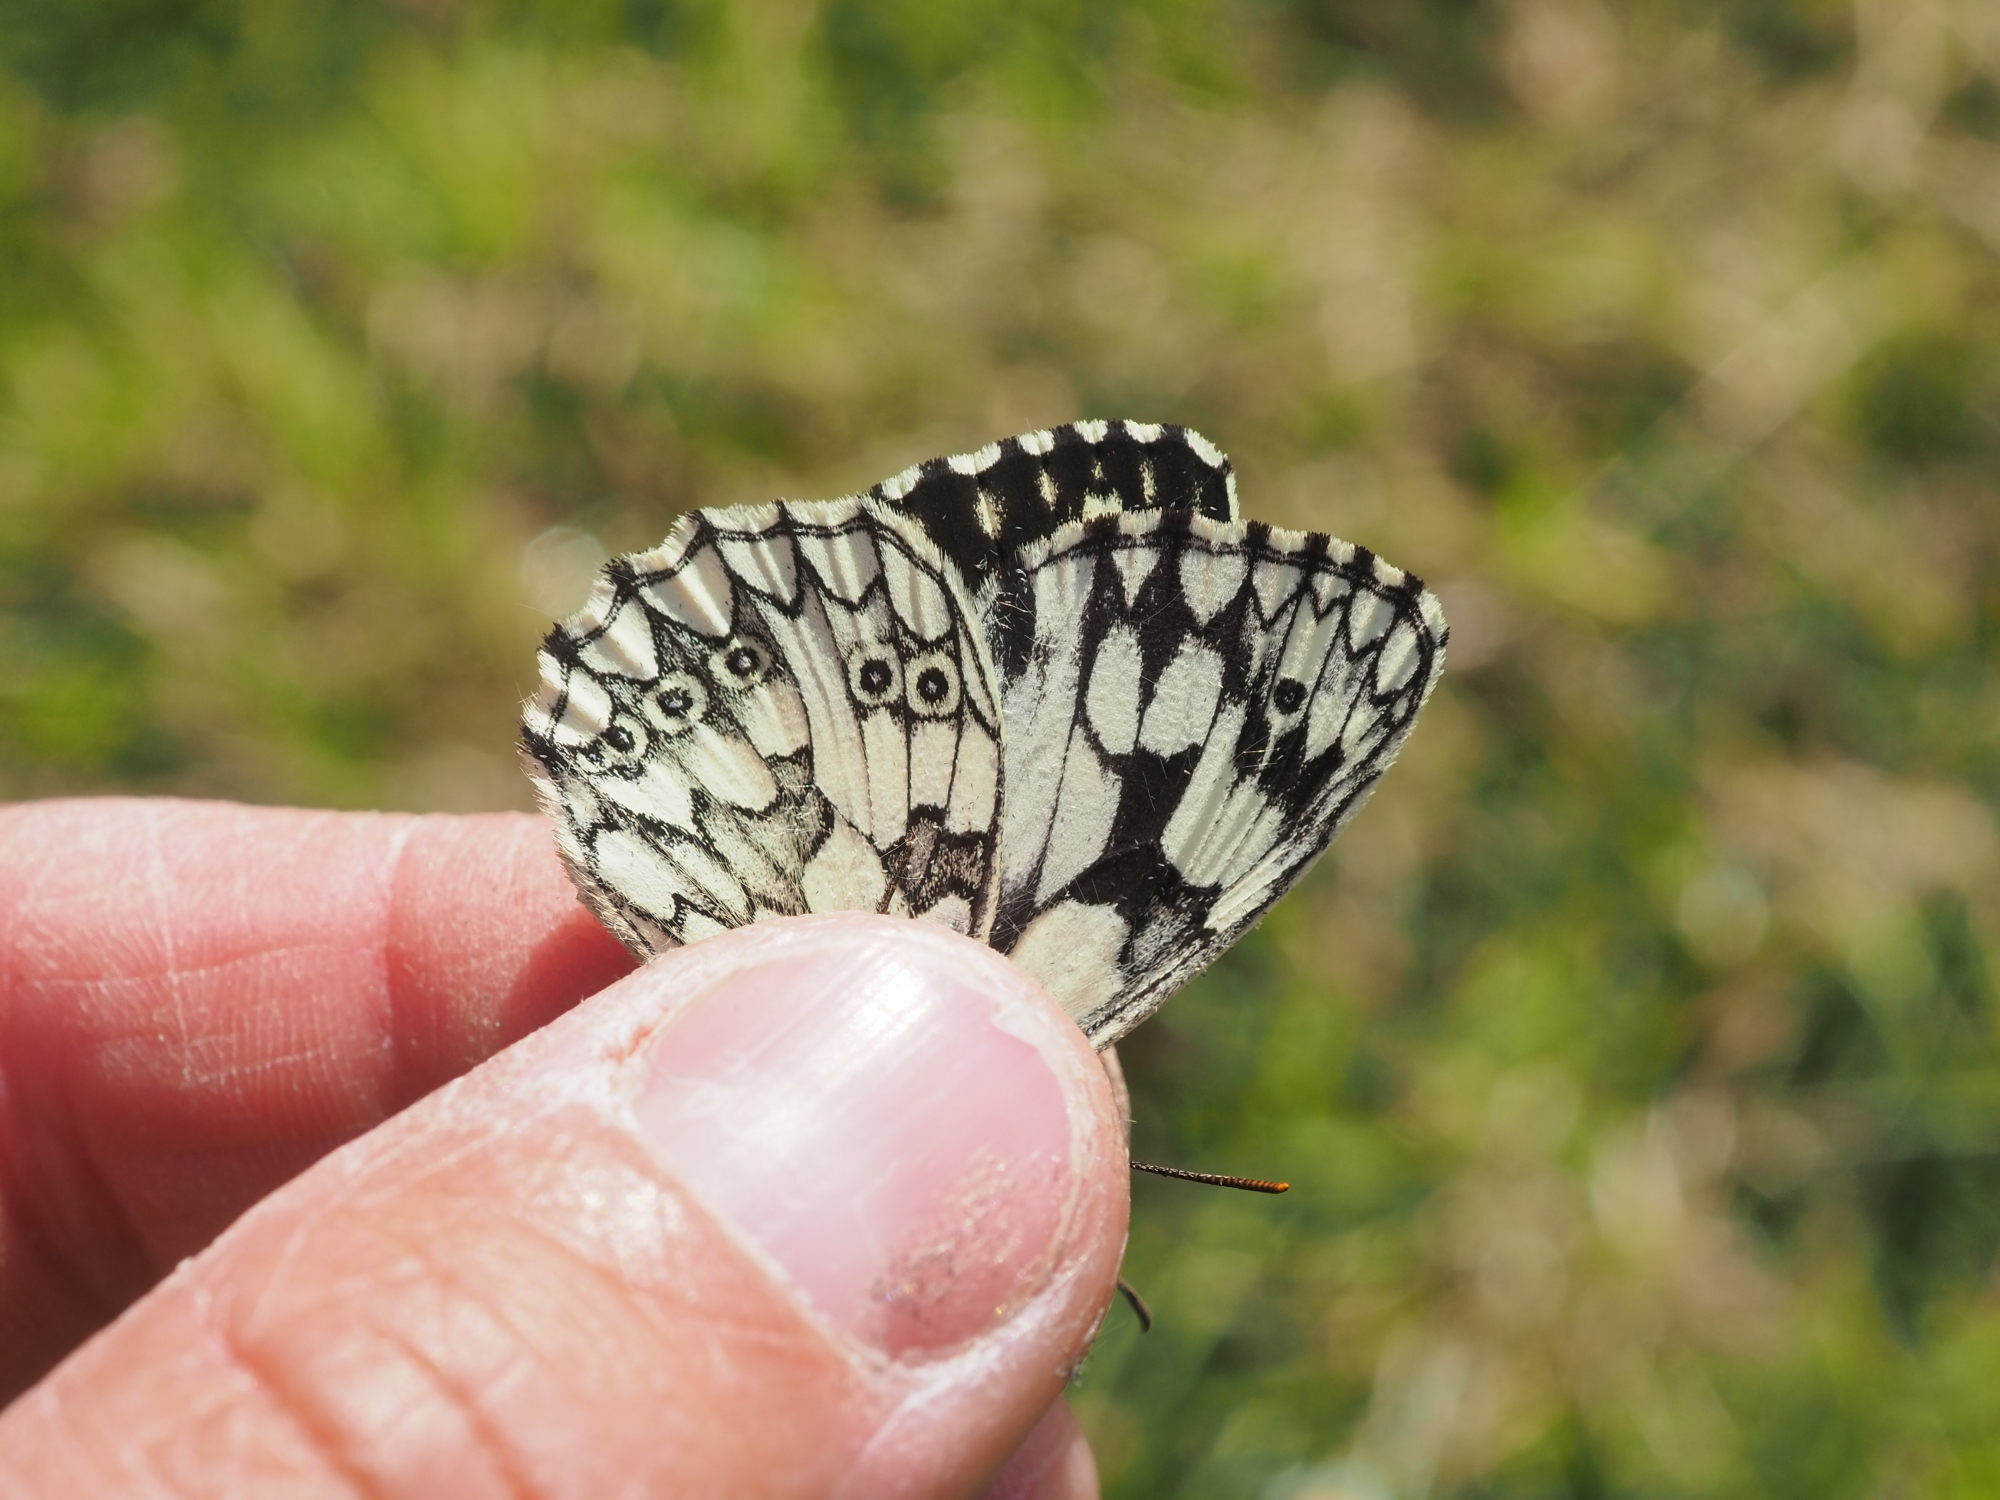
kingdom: Animalia
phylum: Arthropoda
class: Insecta
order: Lepidoptera
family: Nymphalidae
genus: Melanargia
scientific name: Melanargia galathea
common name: Marbled white
